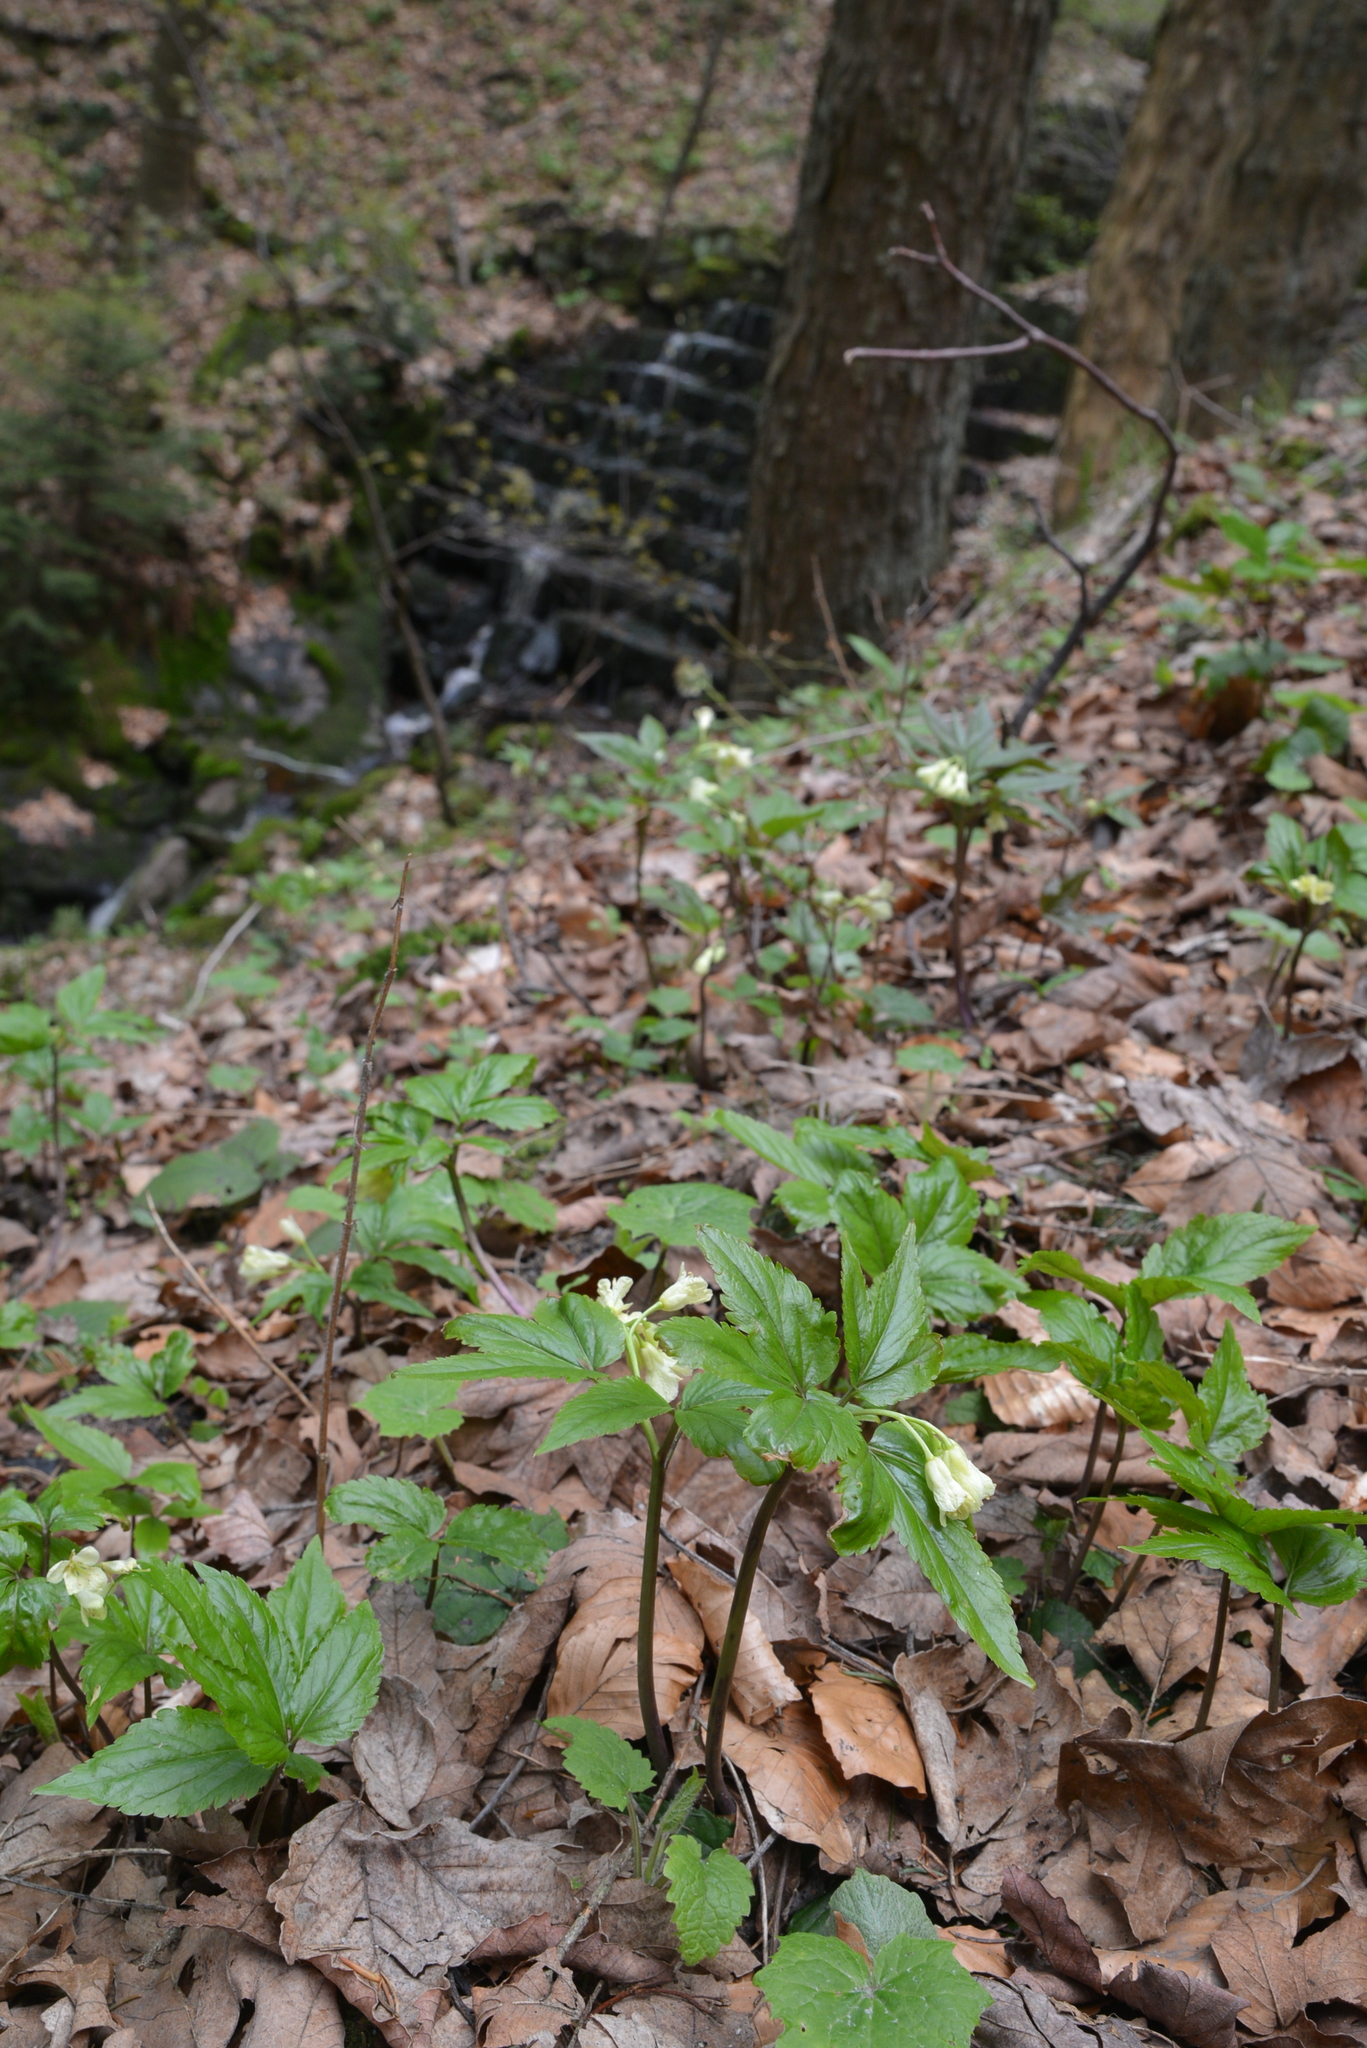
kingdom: Plantae
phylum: Tracheophyta
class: Magnoliopsida
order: Brassicales
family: Brassicaceae
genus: Cardamine
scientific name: Cardamine enneaphyllos
